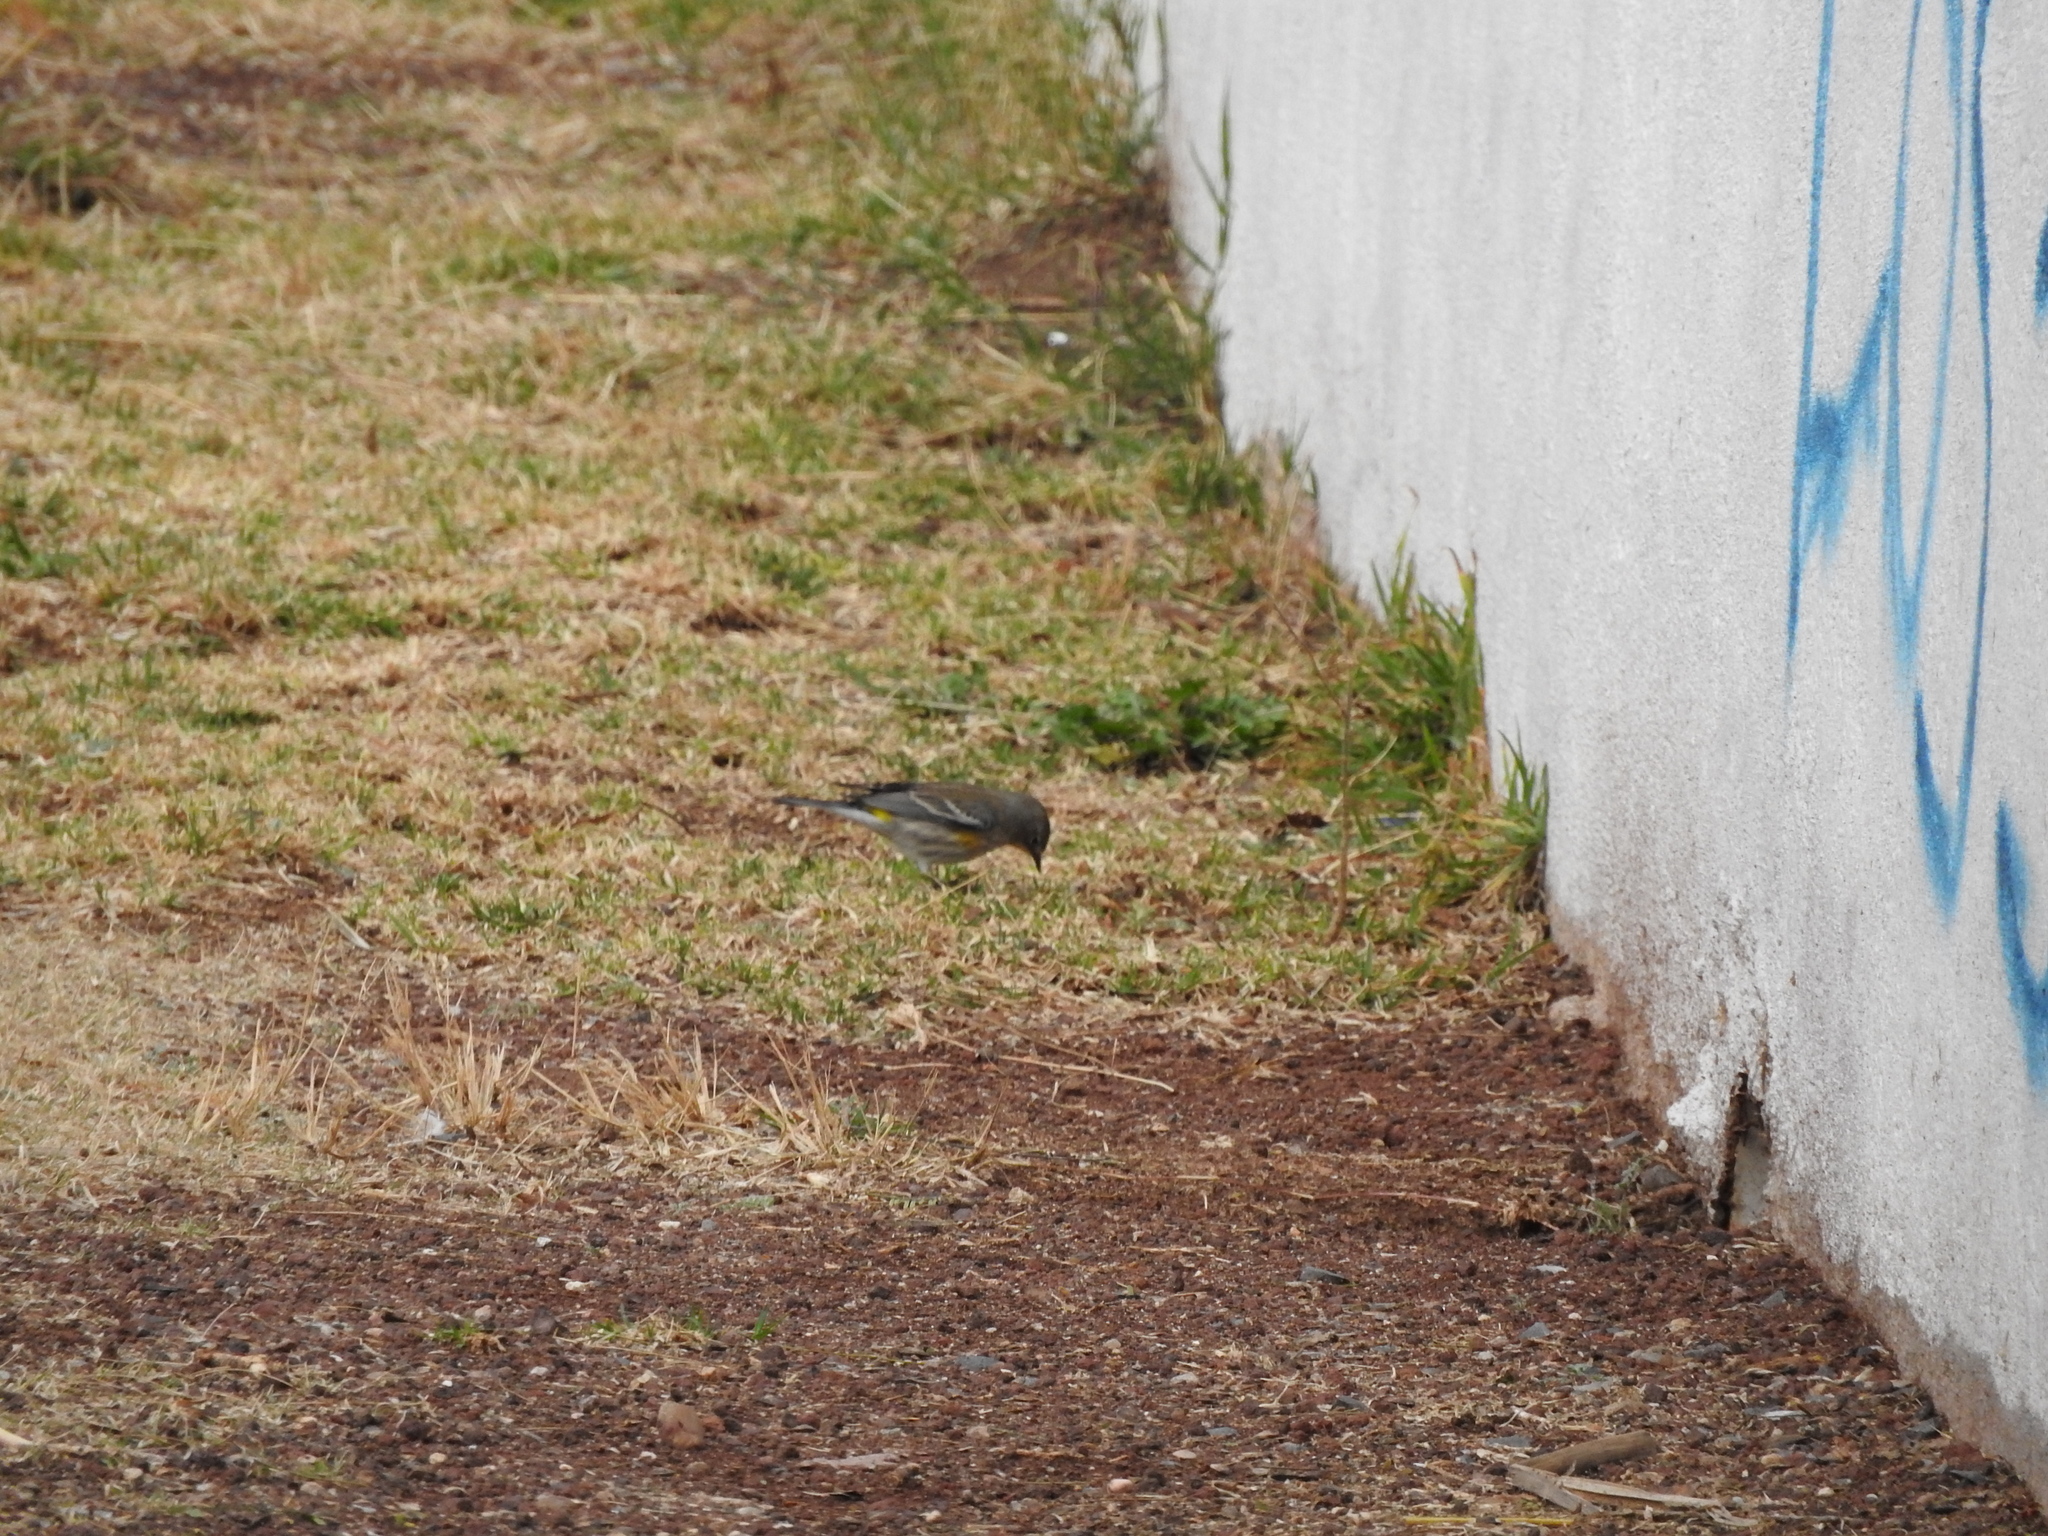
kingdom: Animalia
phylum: Chordata
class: Aves
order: Passeriformes
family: Parulidae
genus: Setophaga
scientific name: Setophaga coronata
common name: Myrtle warbler
